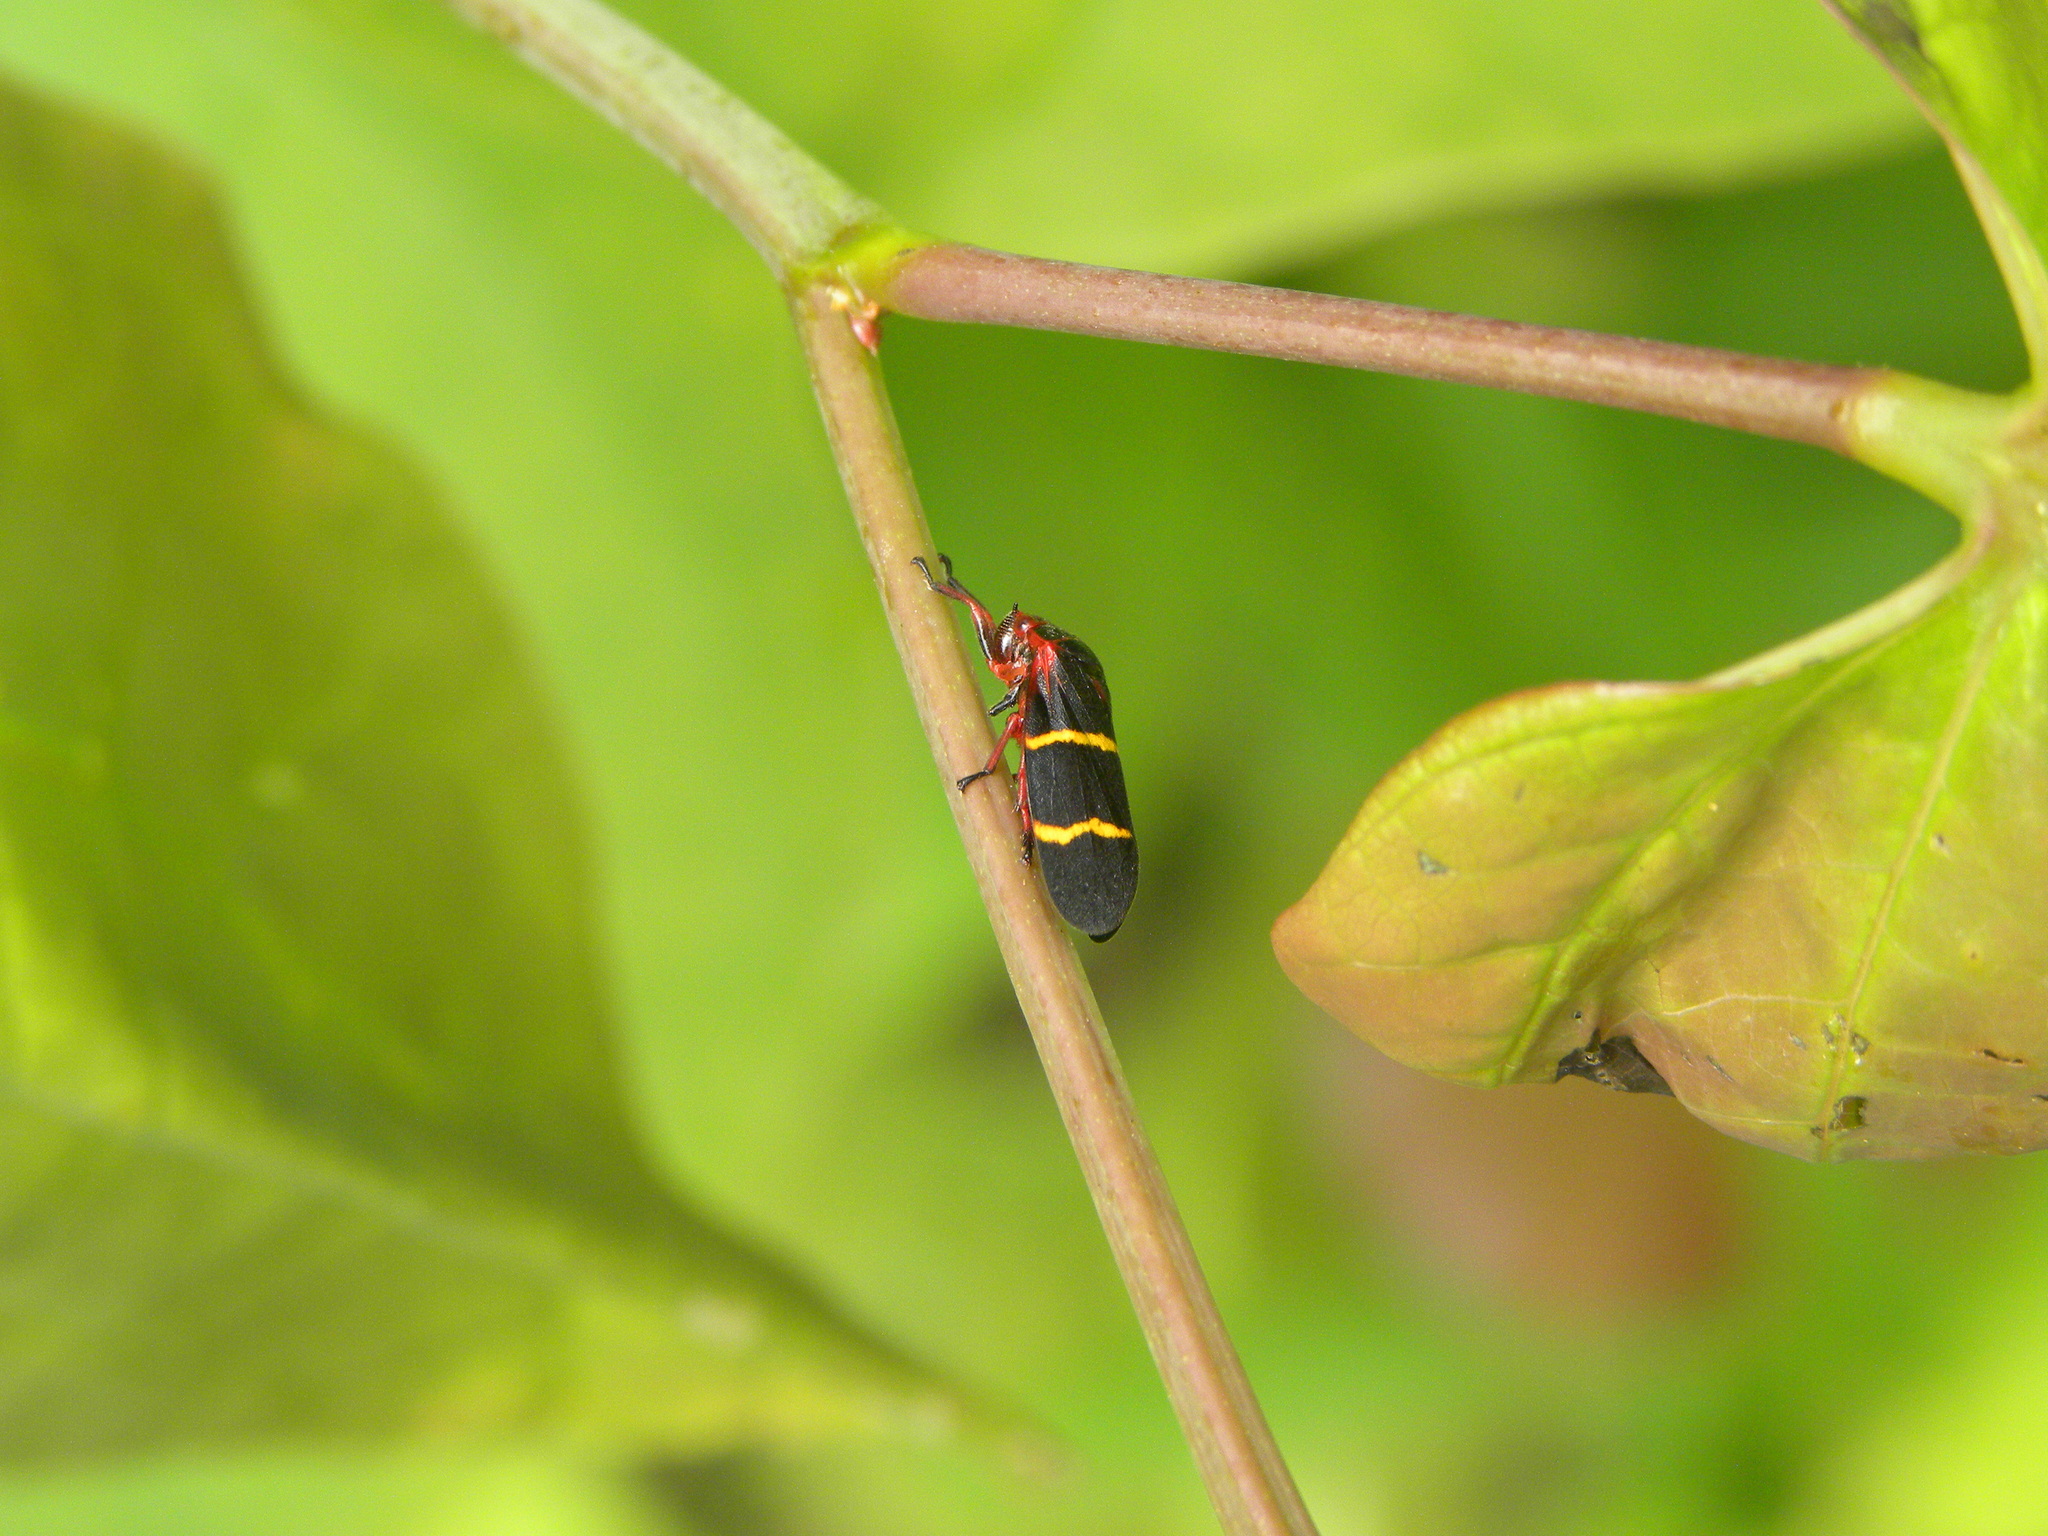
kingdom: Animalia
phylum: Arthropoda
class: Insecta
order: Hemiptera
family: Cercopidae
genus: Prosapia
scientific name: Prosapia bicincta
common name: Twolined spittlebug
